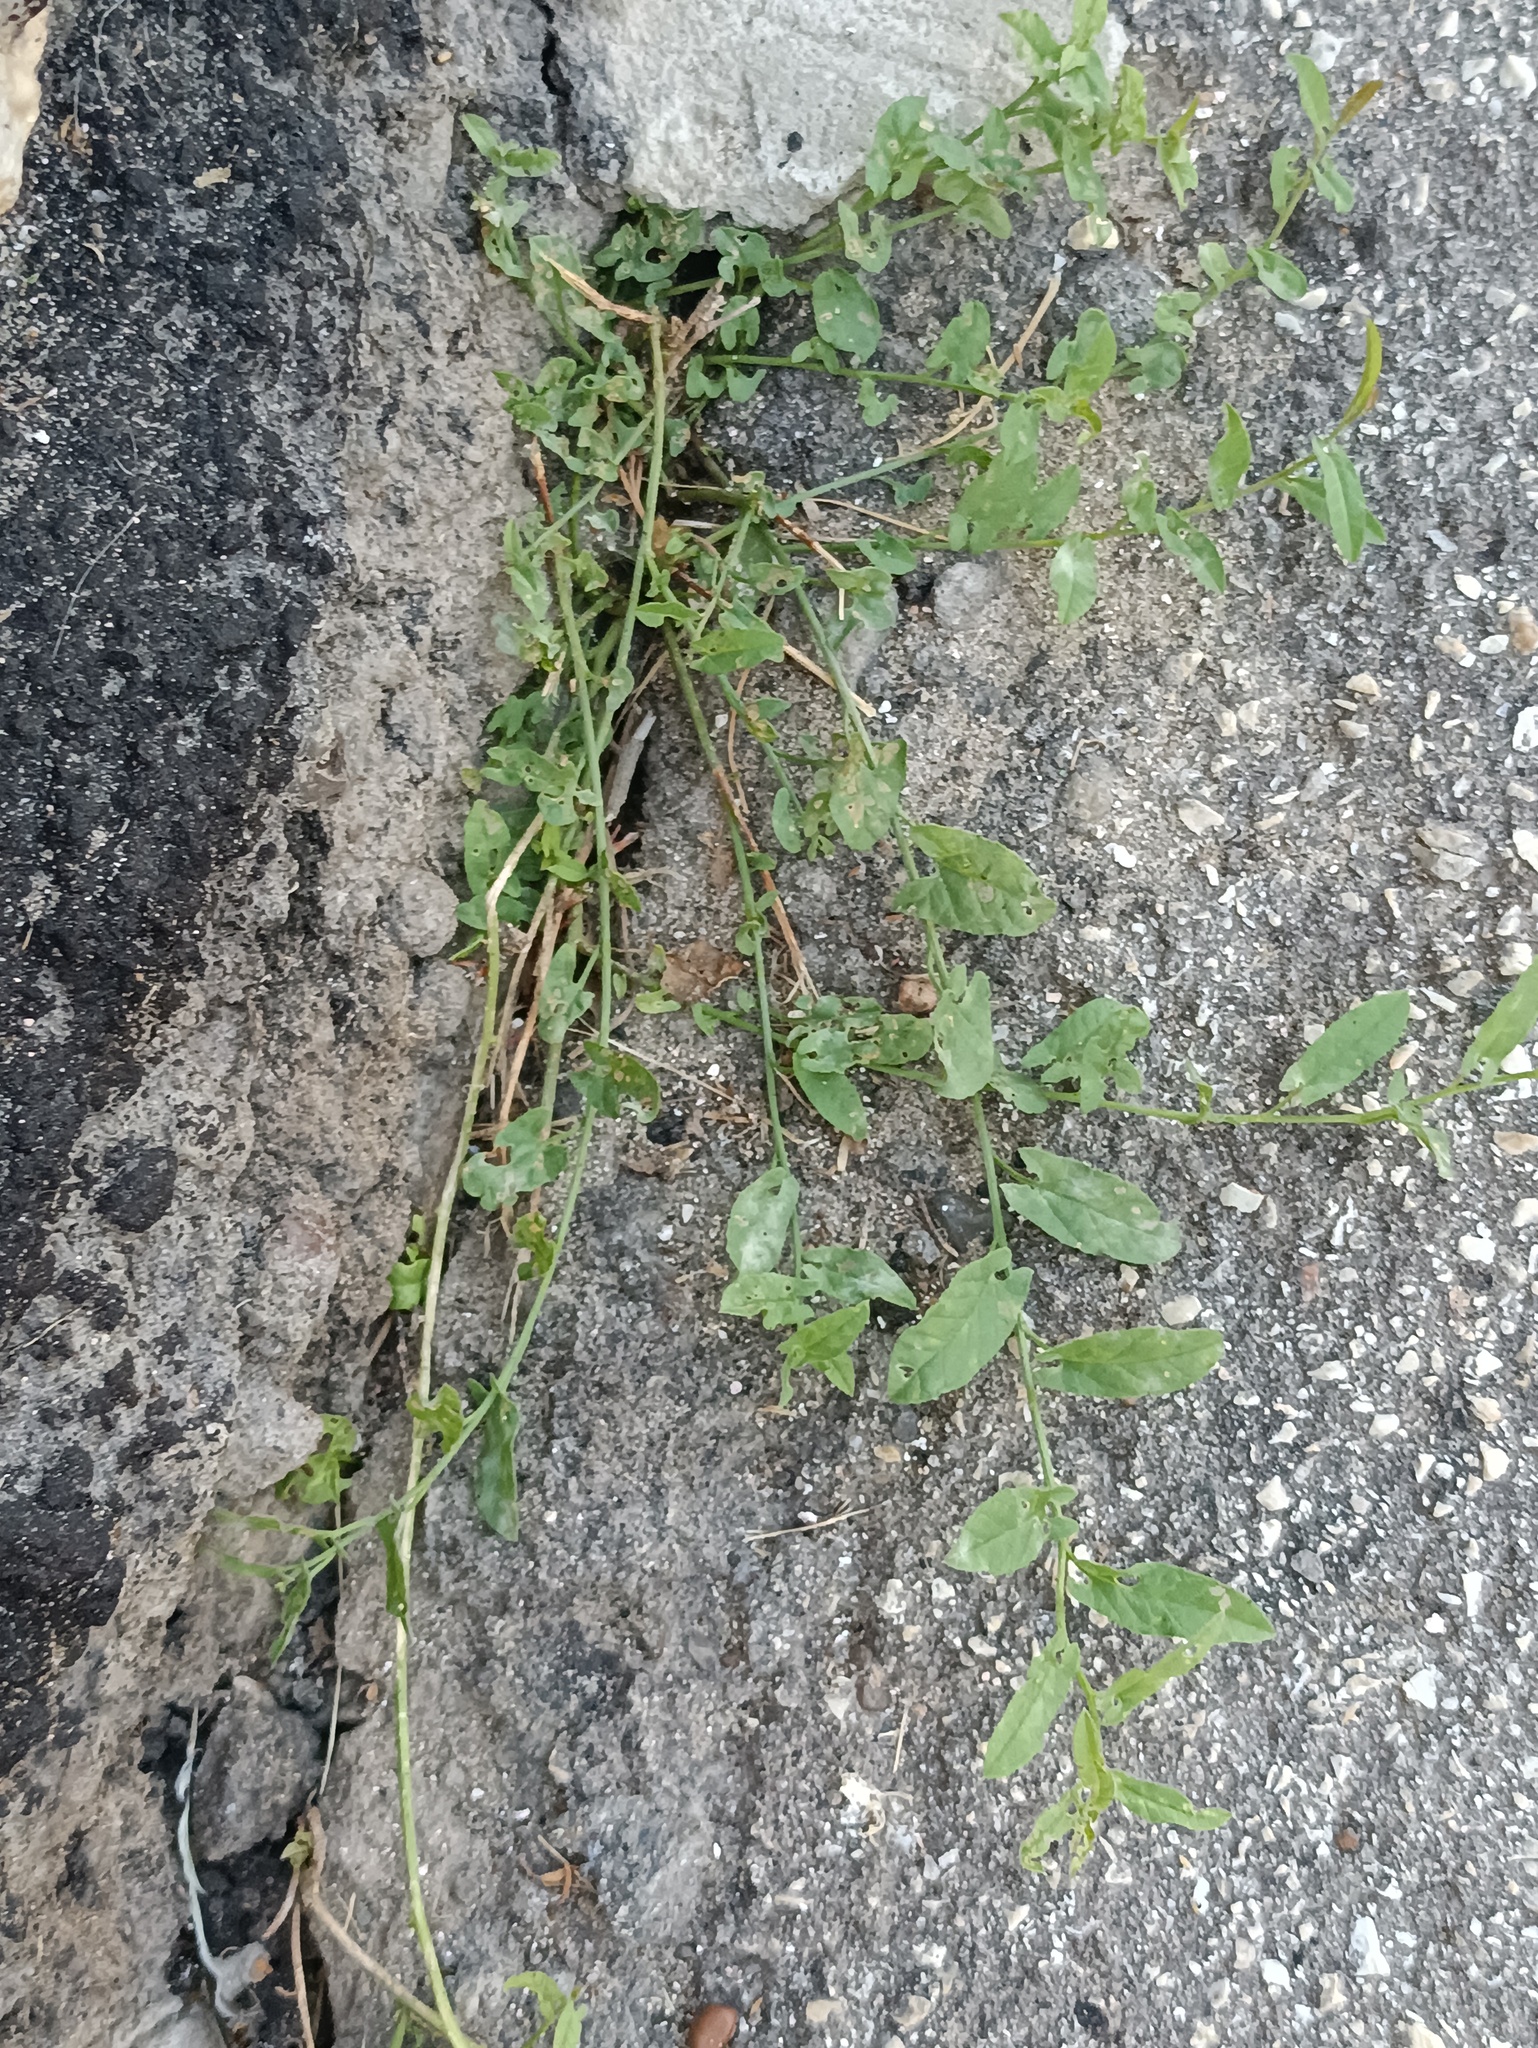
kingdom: Plantae
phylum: Tracheophyta
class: Magnoliopsida
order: Solanales
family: Convolvulaceae
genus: Convolvulus
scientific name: Convolvulus arvensis
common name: Field bindweed
